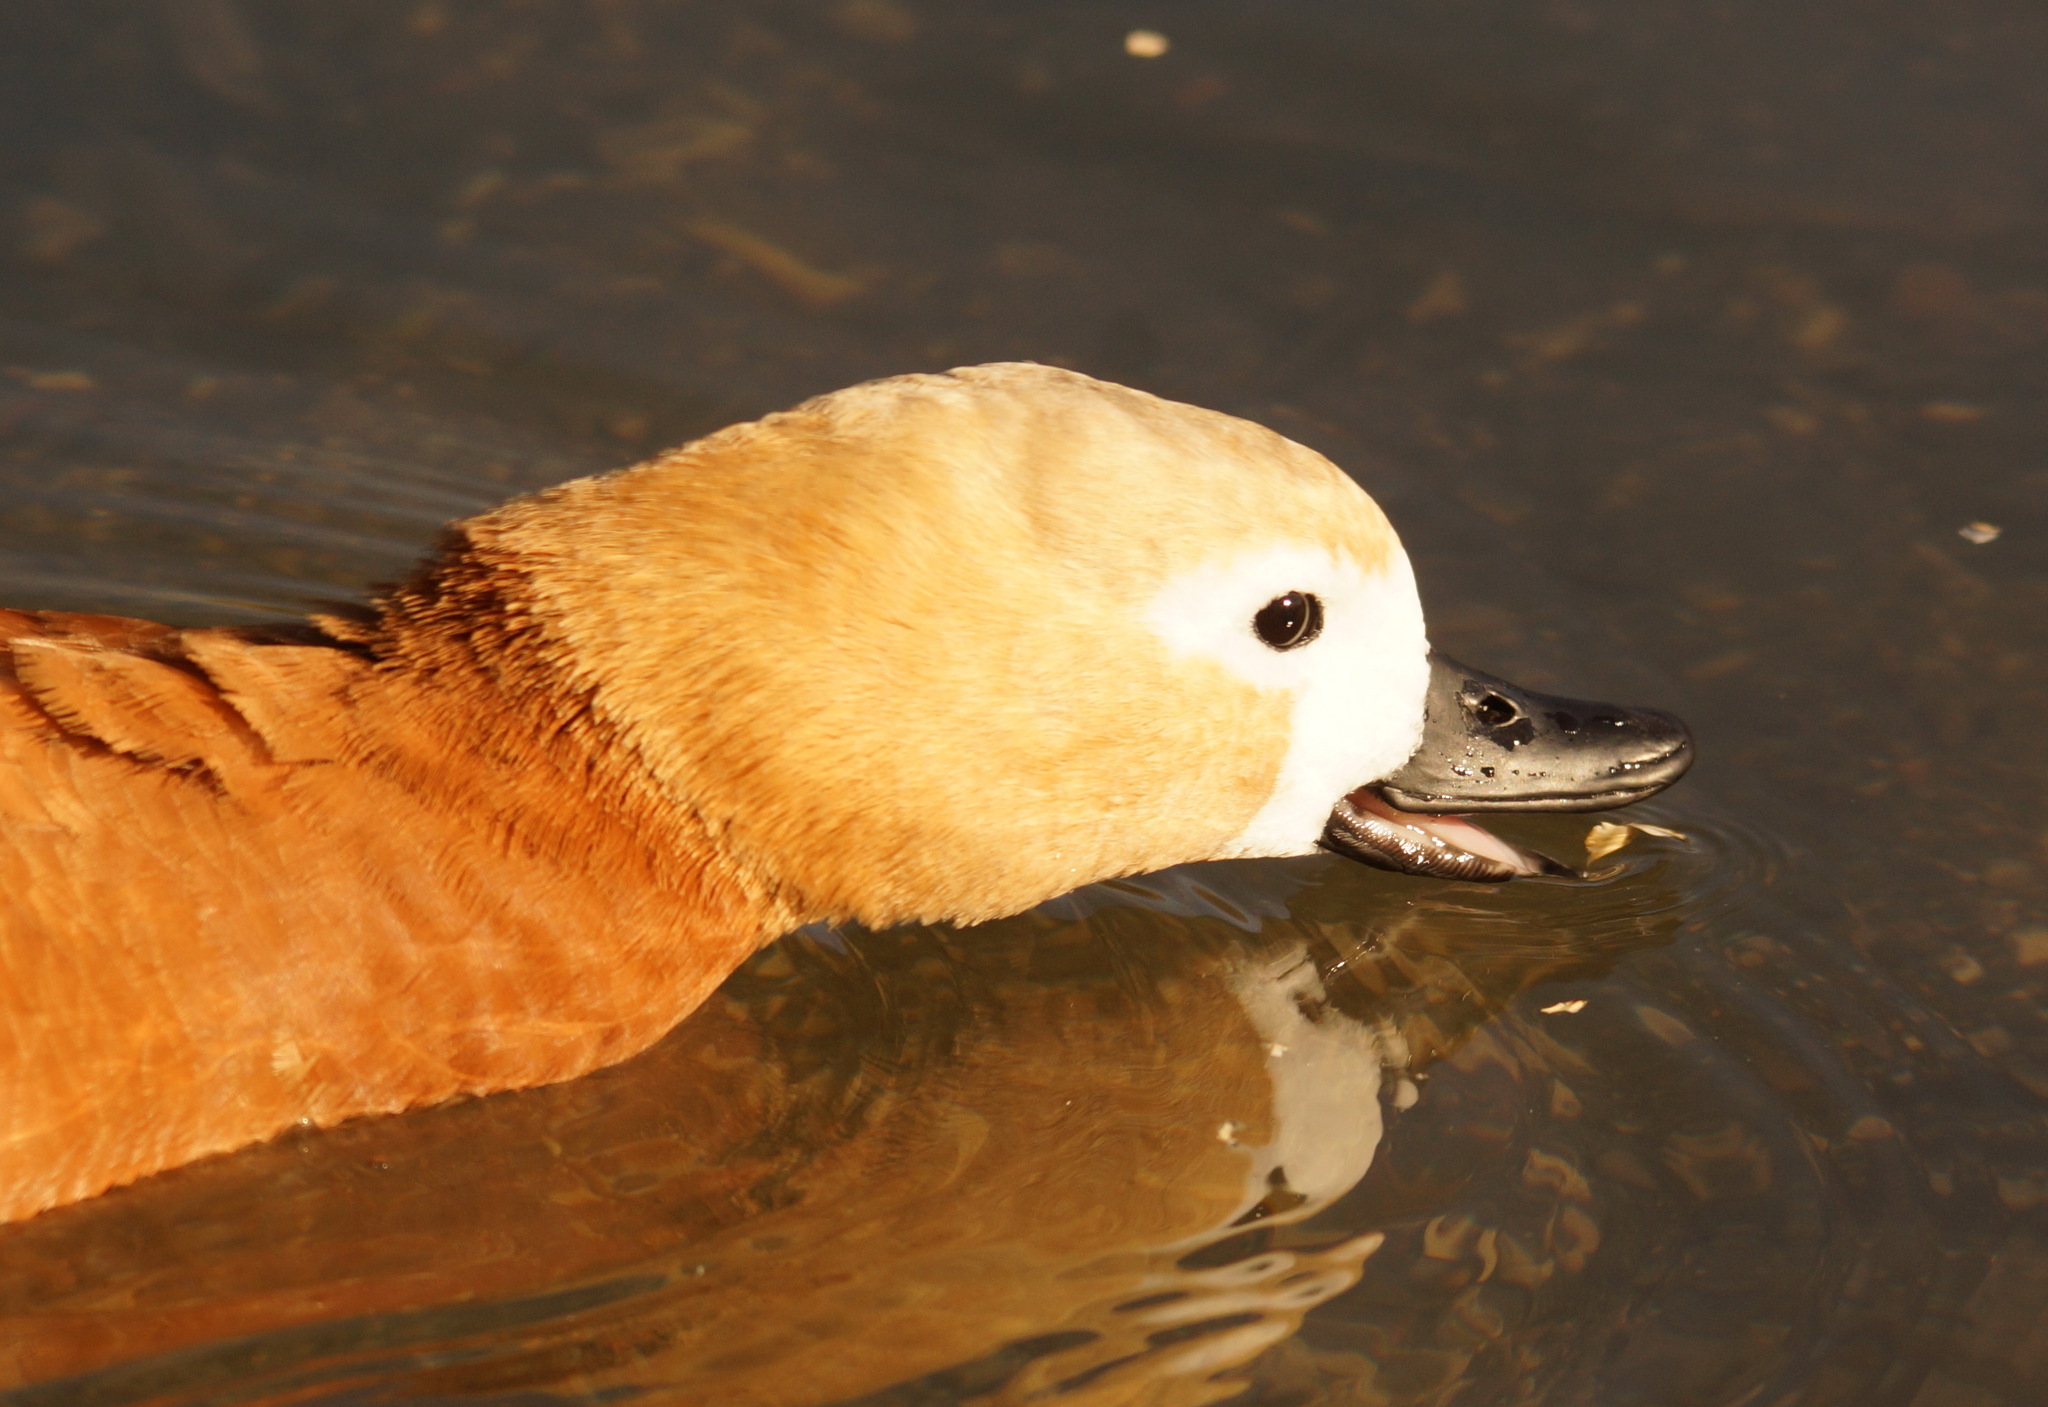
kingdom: Animalia
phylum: Chordata
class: Aves
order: Anseriformes
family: Anatidae
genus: Tadorna
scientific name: Tadorna ferruginea
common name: Ruddy shelduck
